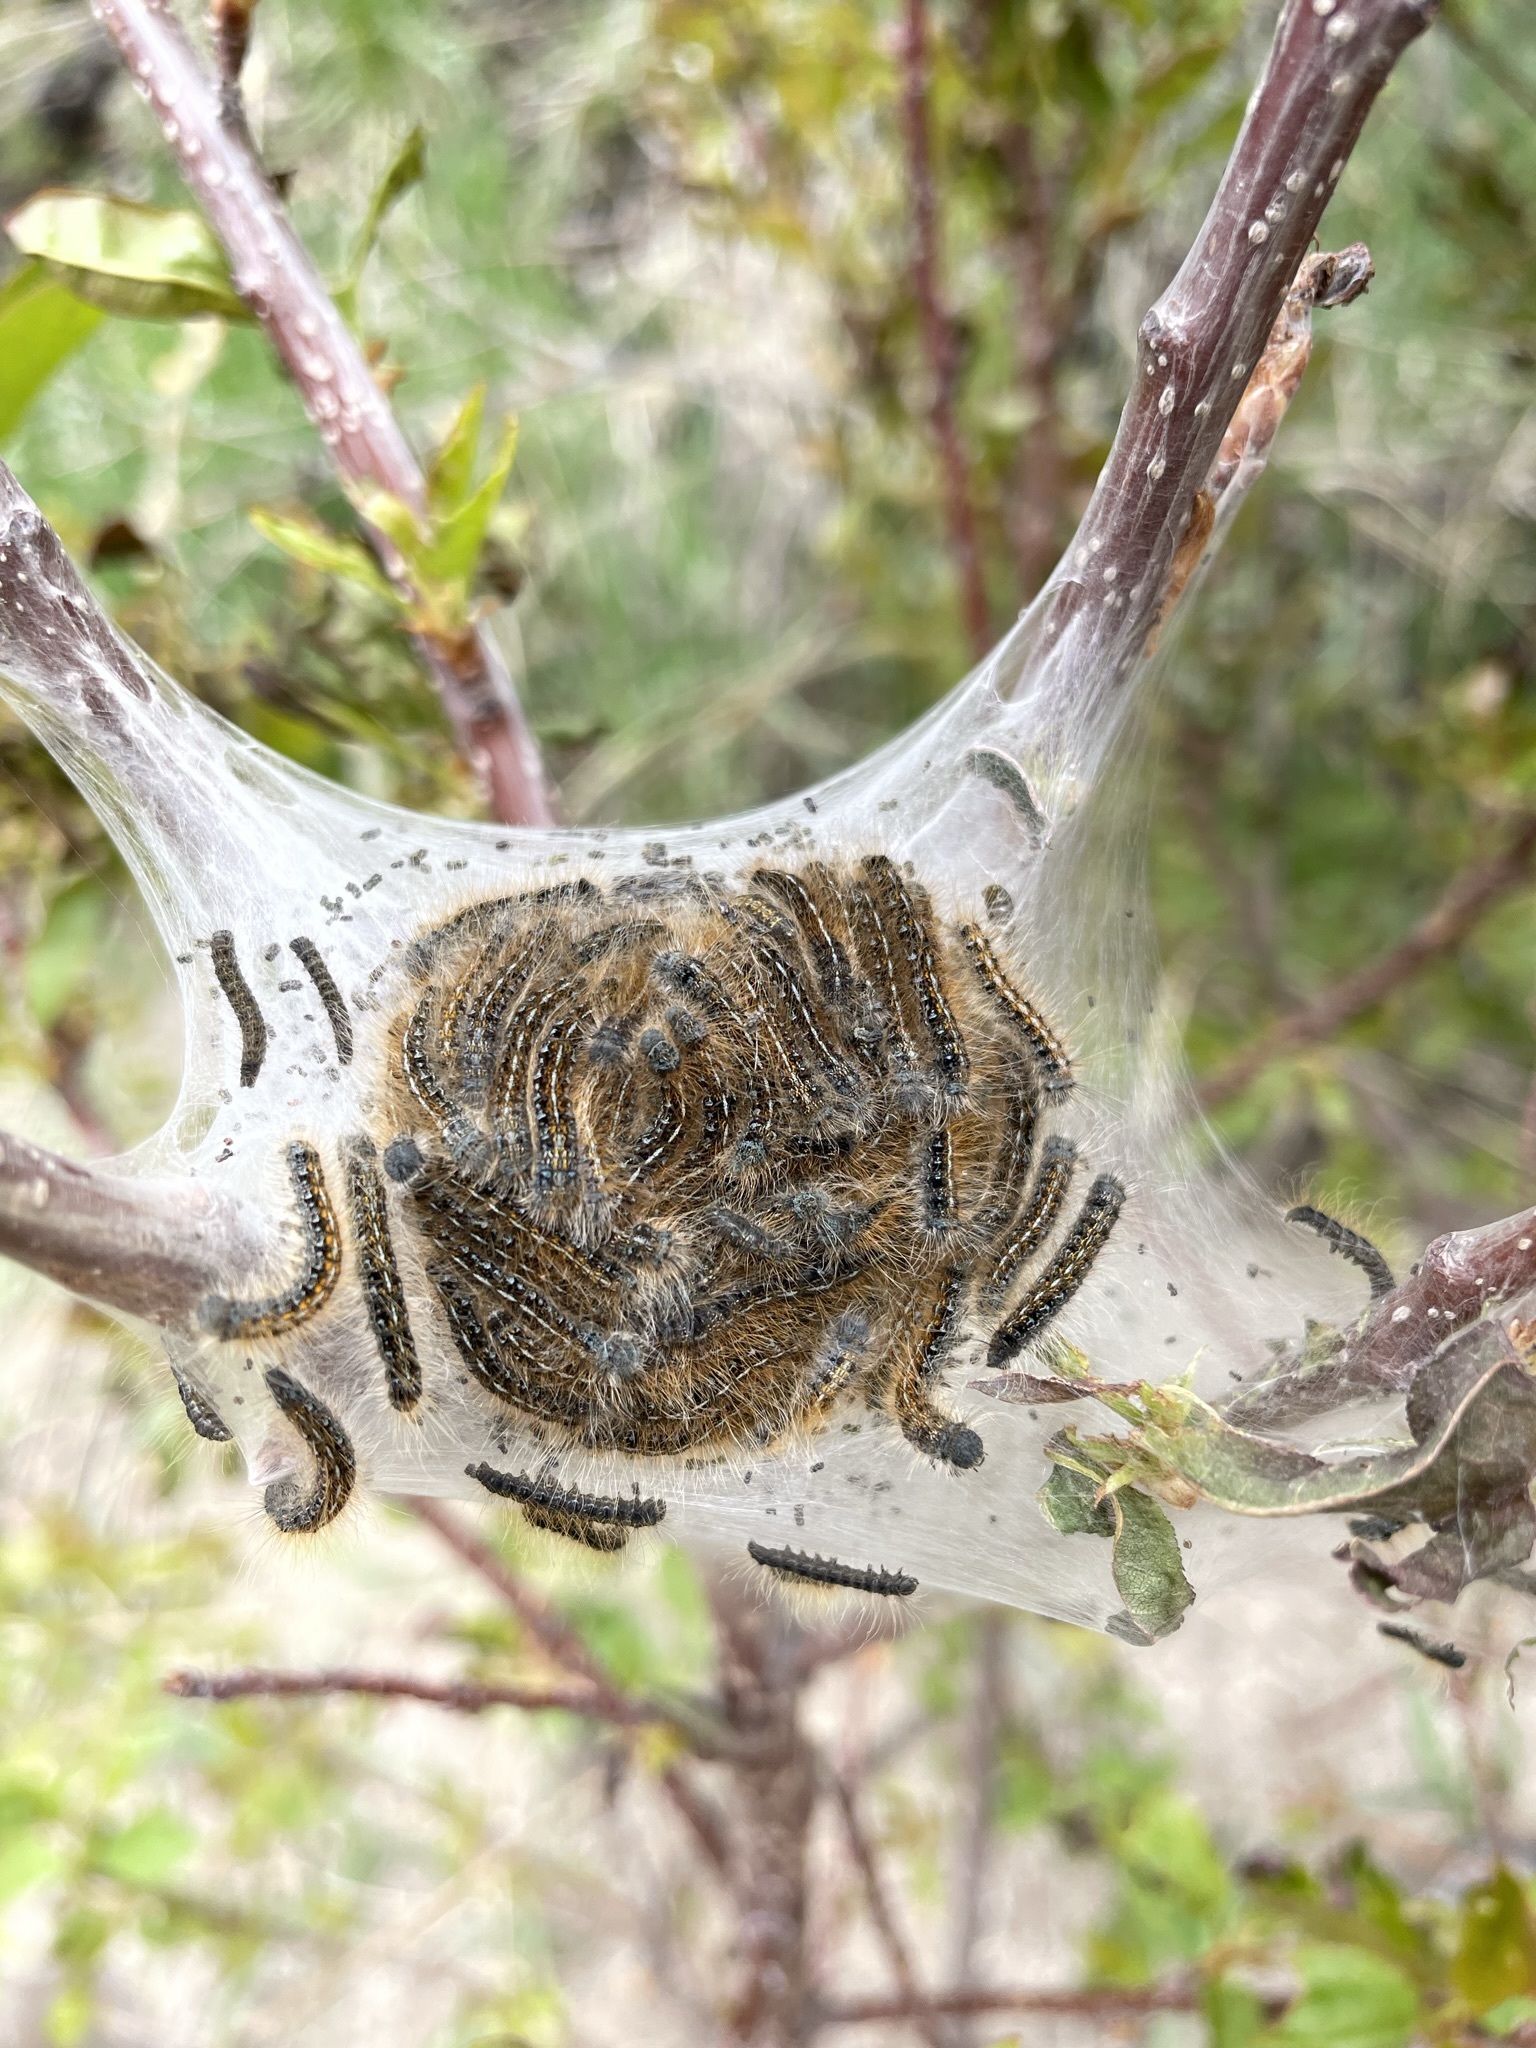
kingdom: Animalia
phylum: Arthropoda
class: Insecta
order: Lepidoptera
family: Lasiocampidae
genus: Malacosoma
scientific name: Malacosoma californica
